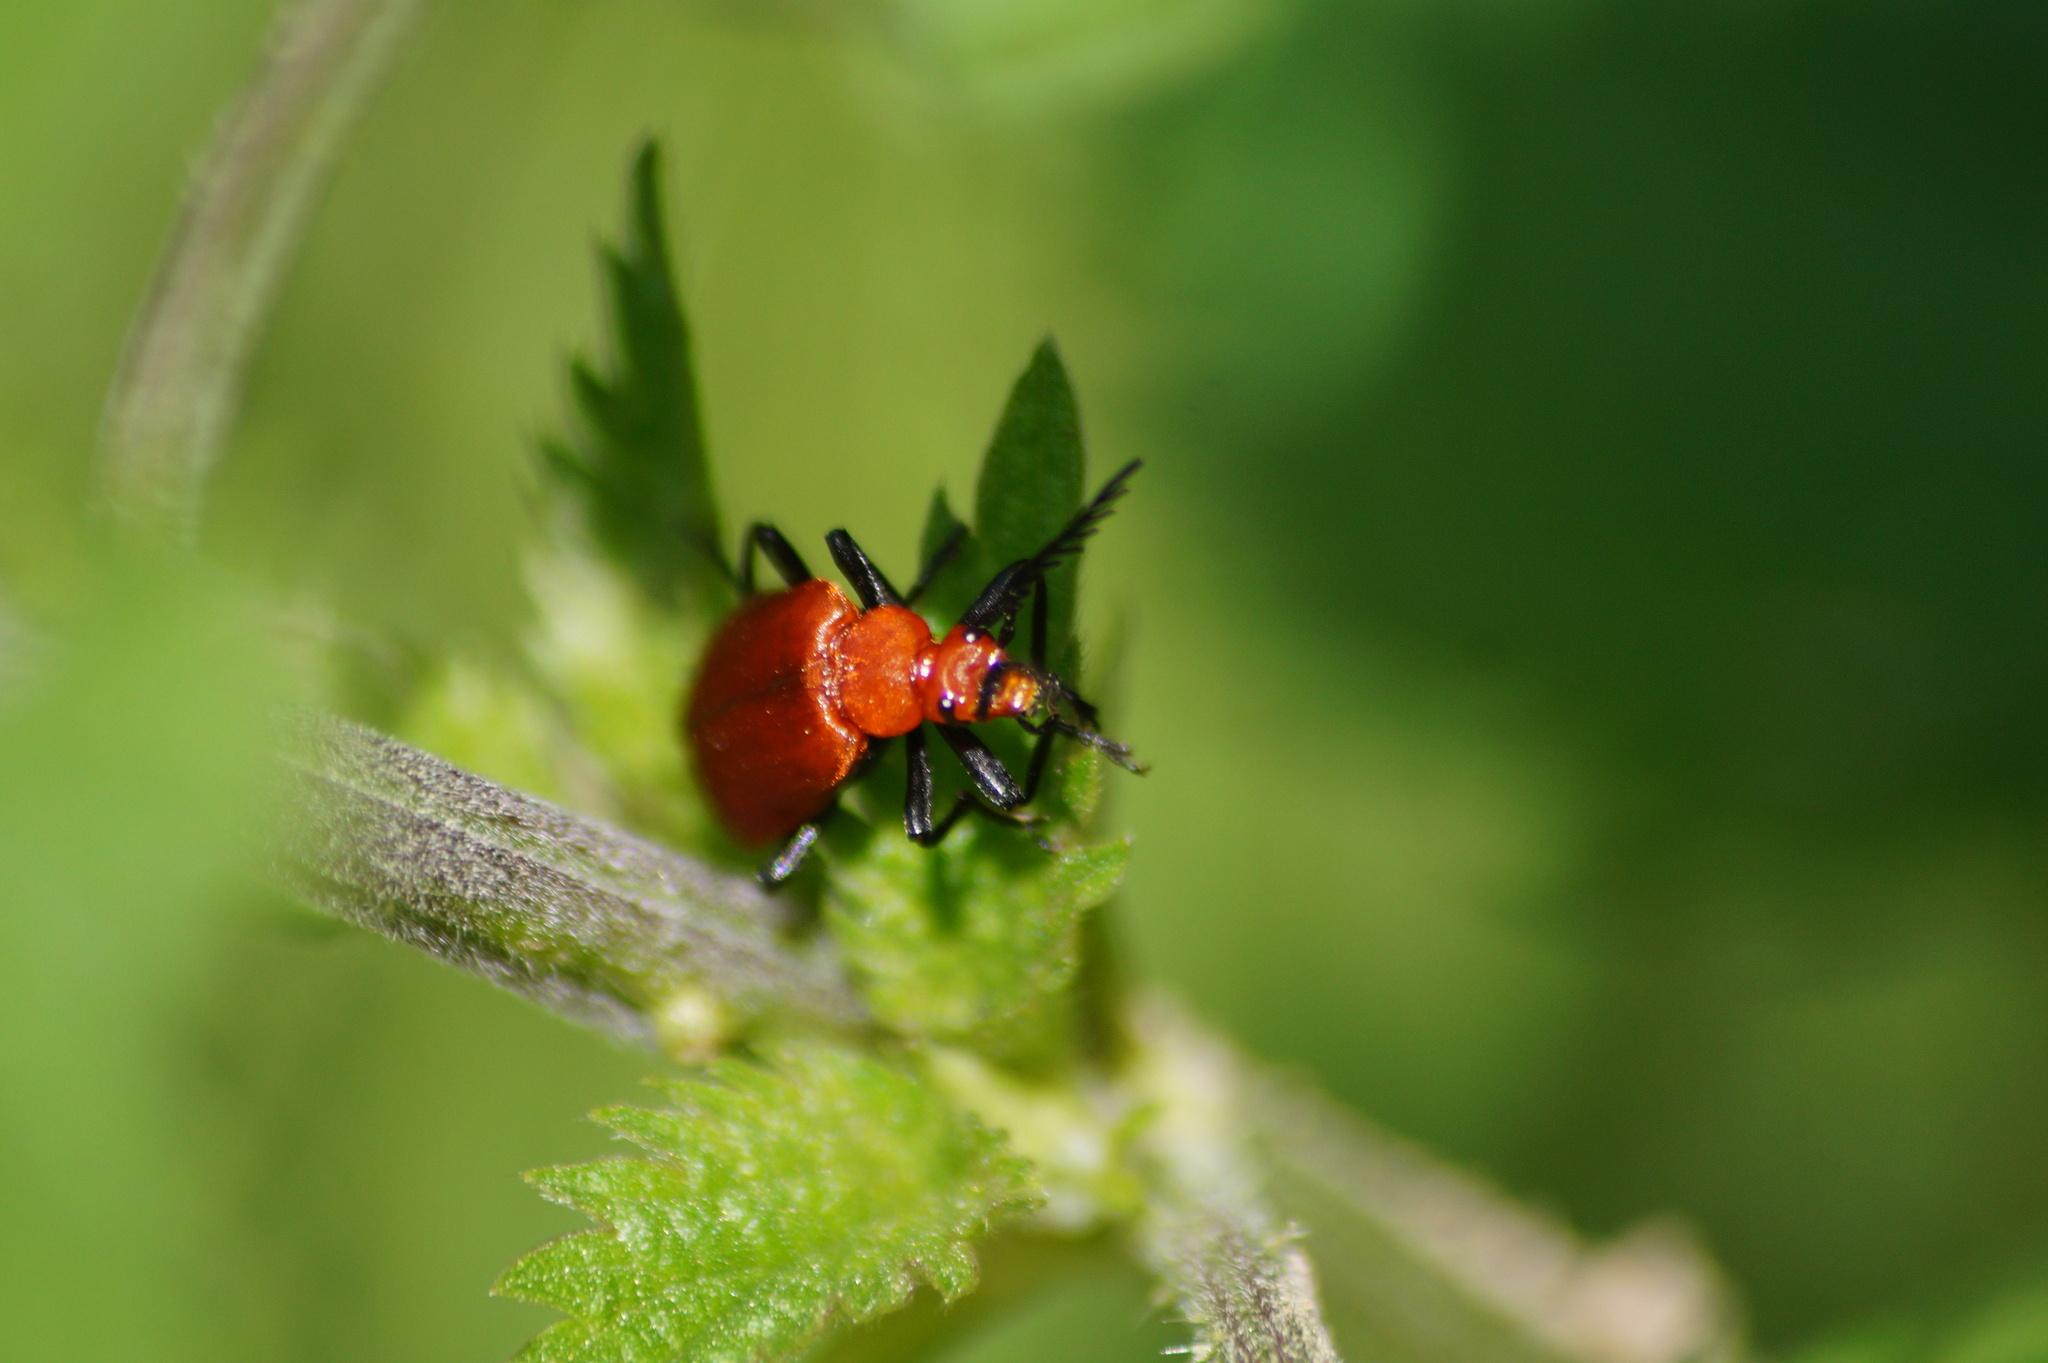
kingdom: Animalia
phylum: Arthropoda
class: Insecta
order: Coleoptera
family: Pyrochroidae
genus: Pyrochroa
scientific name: Pyrochroa serraticornis
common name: Red-headed cardinal beetle
